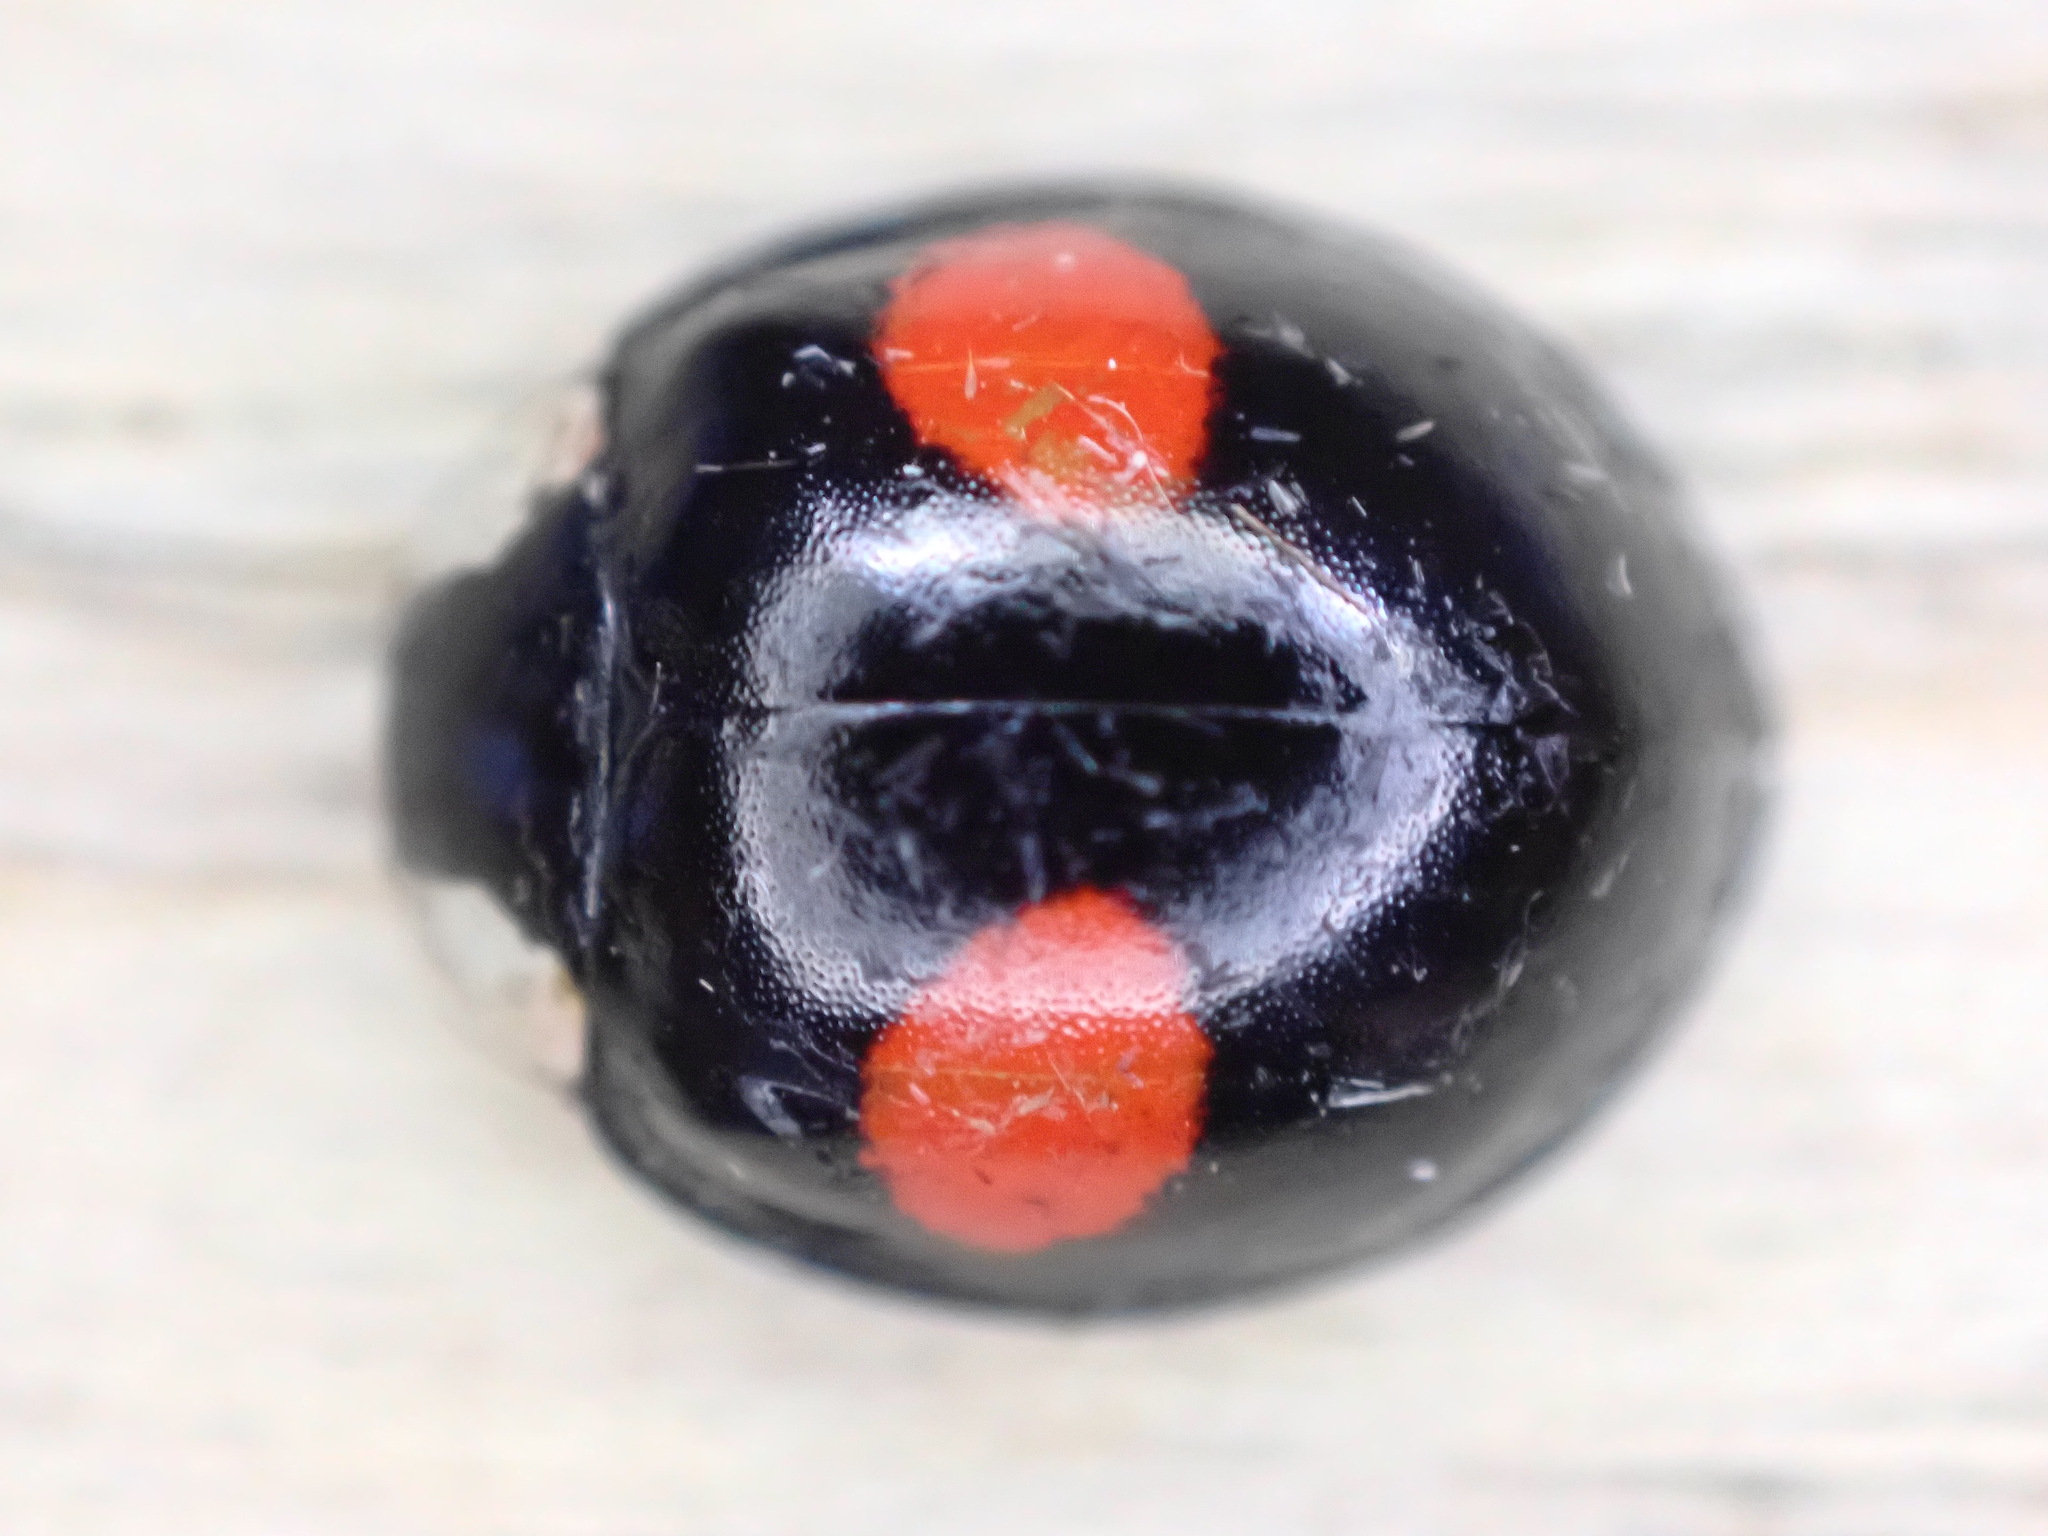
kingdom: Animalia
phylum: Arthropoda
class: Insecta
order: Coleoptera
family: Coccinellidae
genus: Harmonia
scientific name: Harmonia axyridis
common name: Harlequin ladybird
